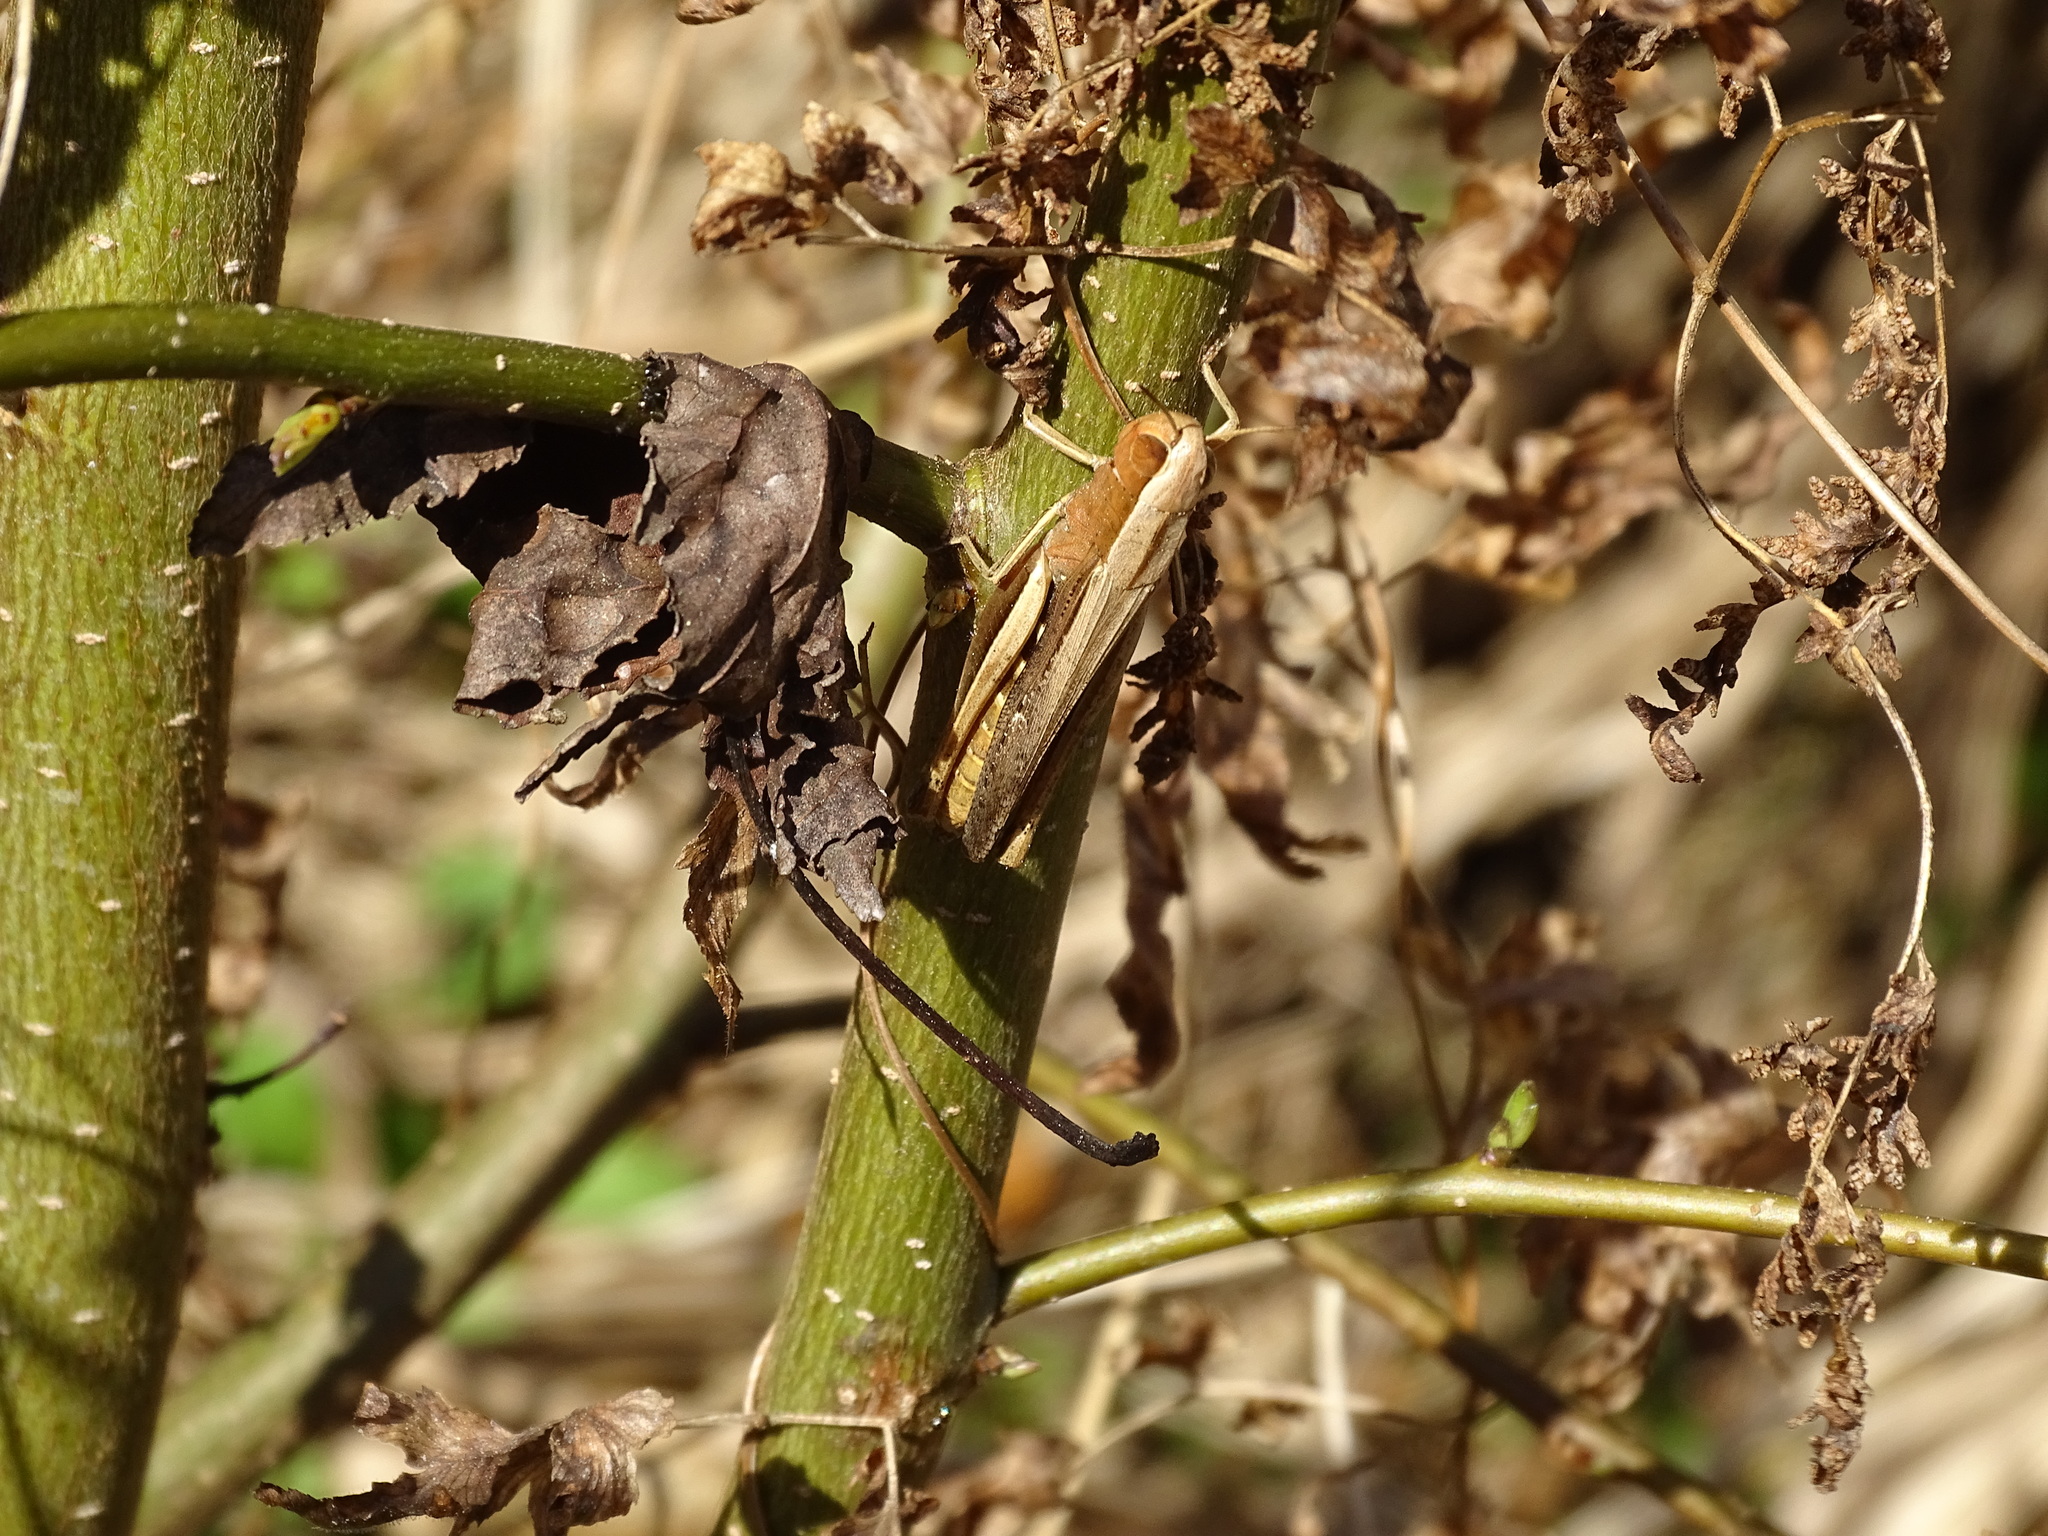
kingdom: Animalia
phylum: Arthropoda
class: Insecta
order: Orthoptera
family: Acrididae
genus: Amblytropidia
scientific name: Amblytropidia mysteca
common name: Brown winter grasshopper
